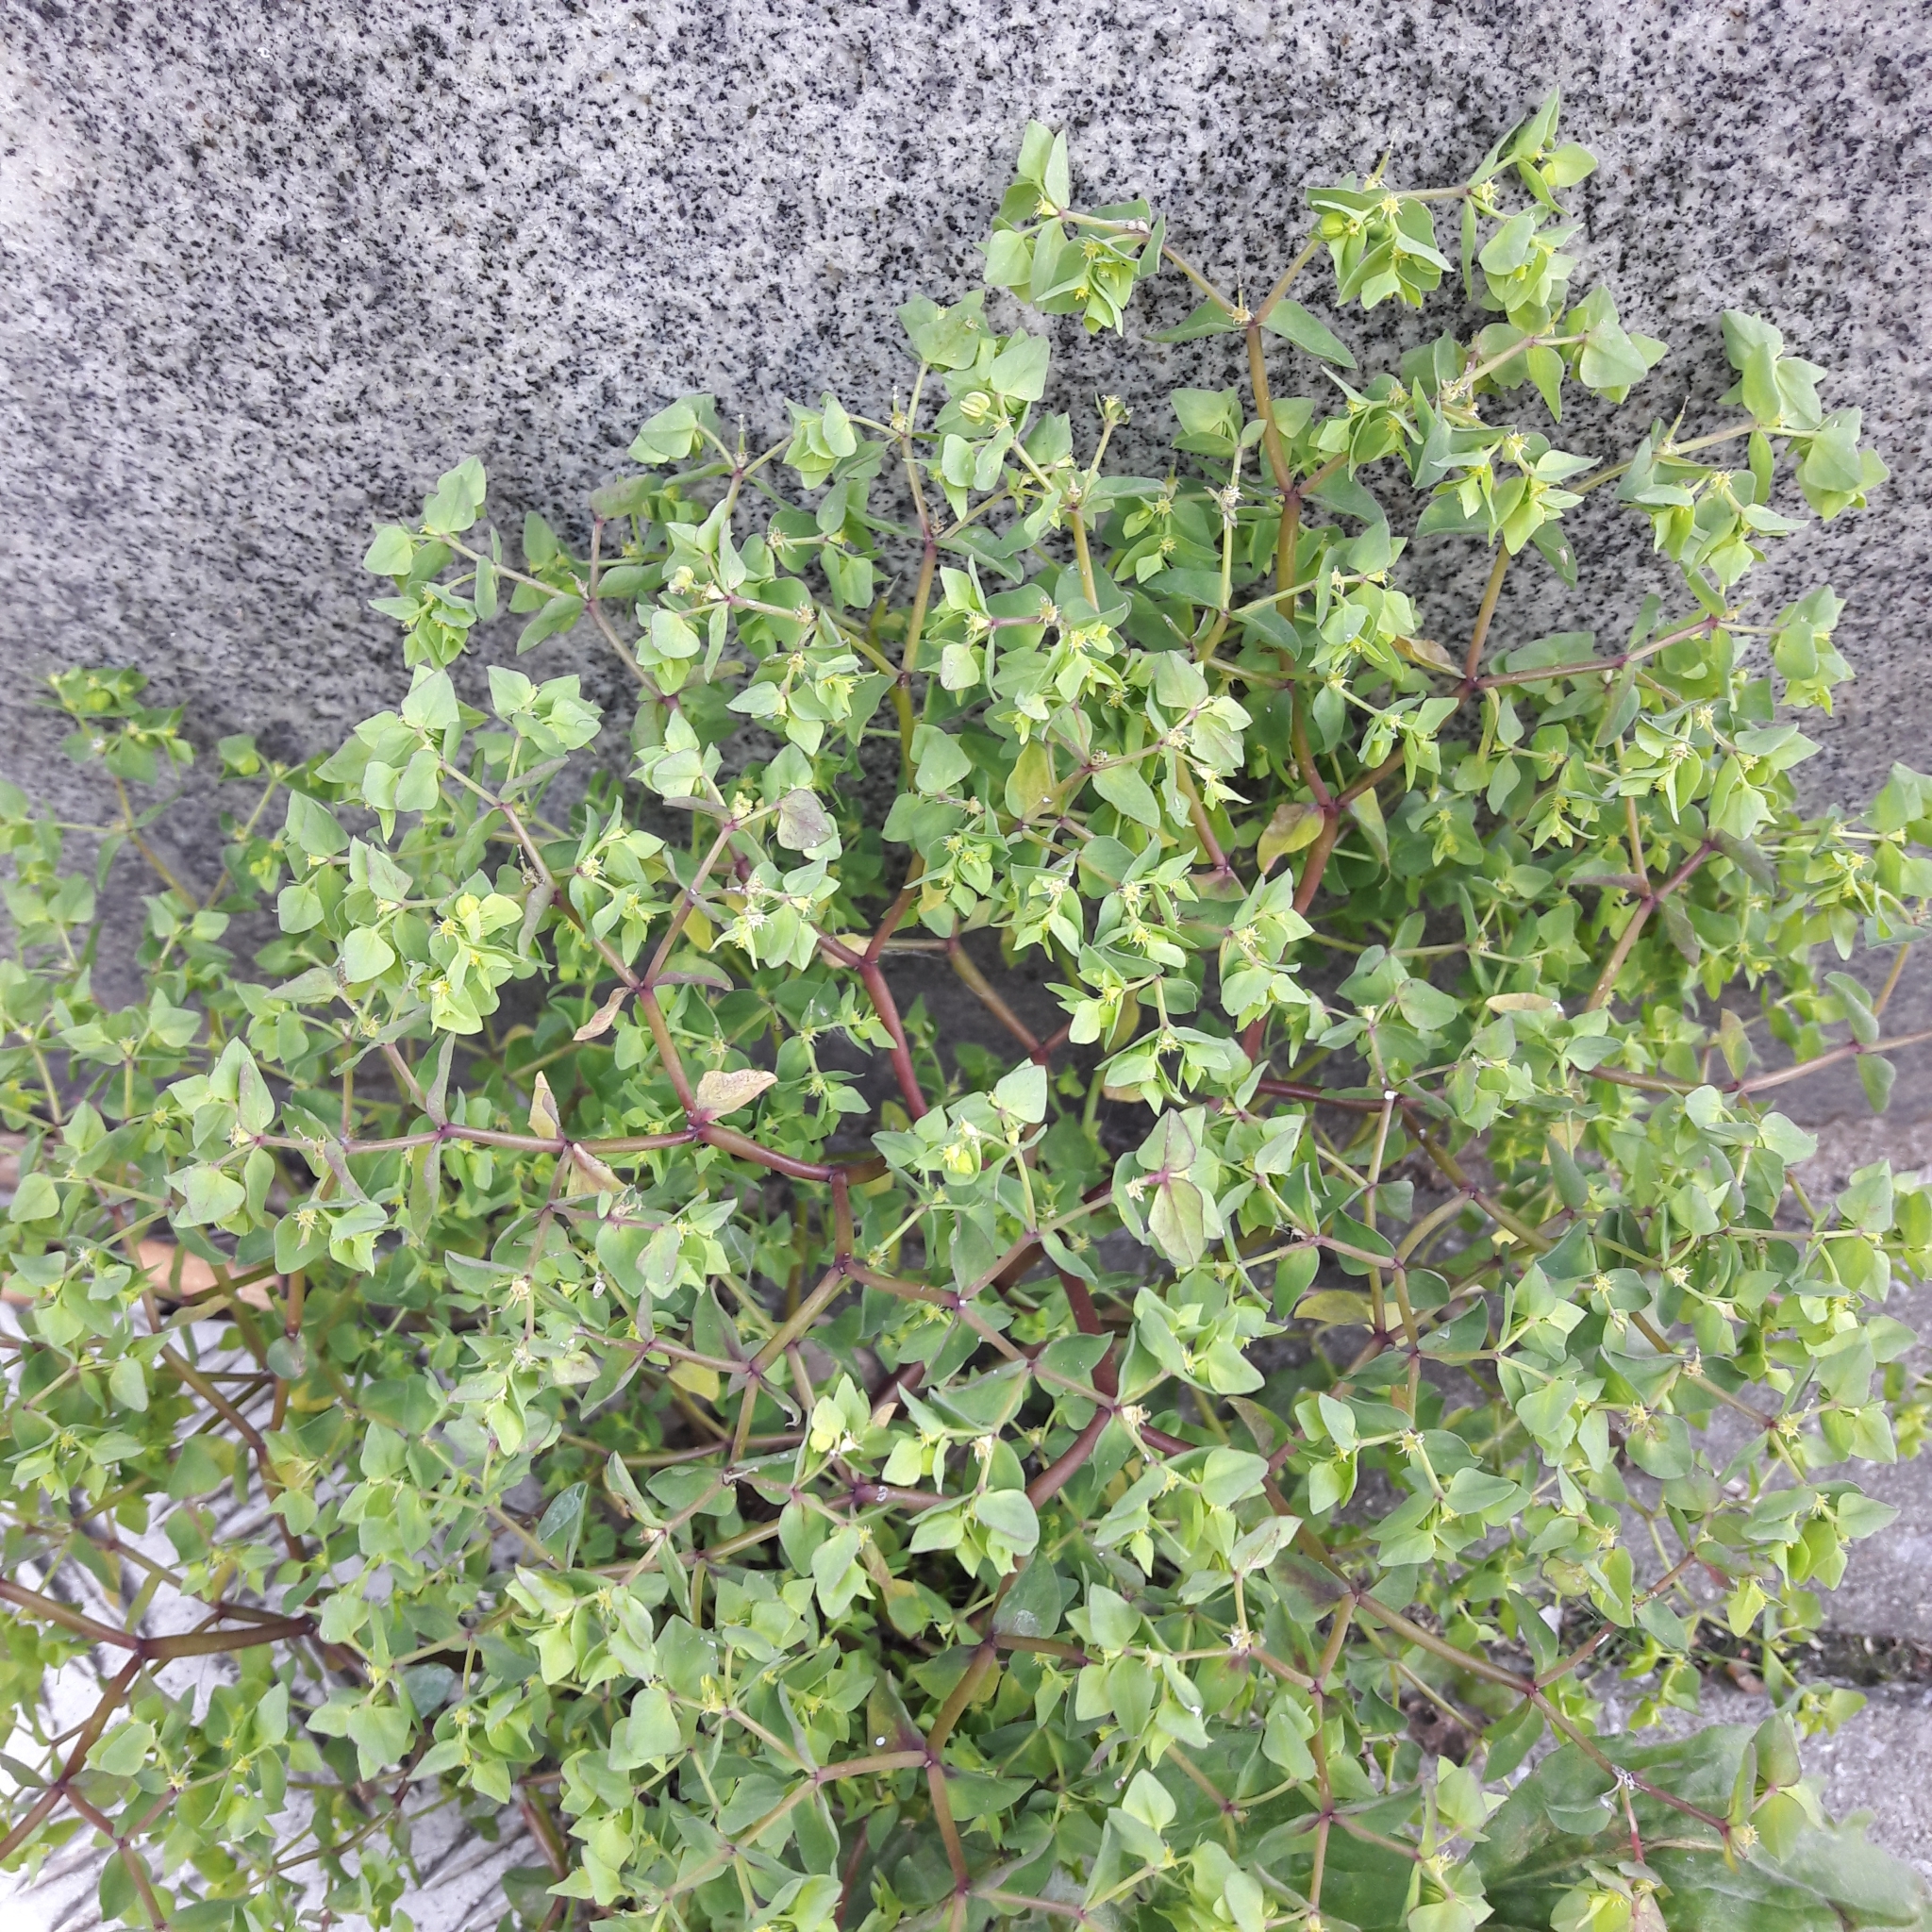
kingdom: Plantae
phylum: Tracheophyta
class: Magnoliopsida
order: Malpighiales
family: Euphorbiaceae
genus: Euphorbia
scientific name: Euphorbia peplus
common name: Petty spurge
